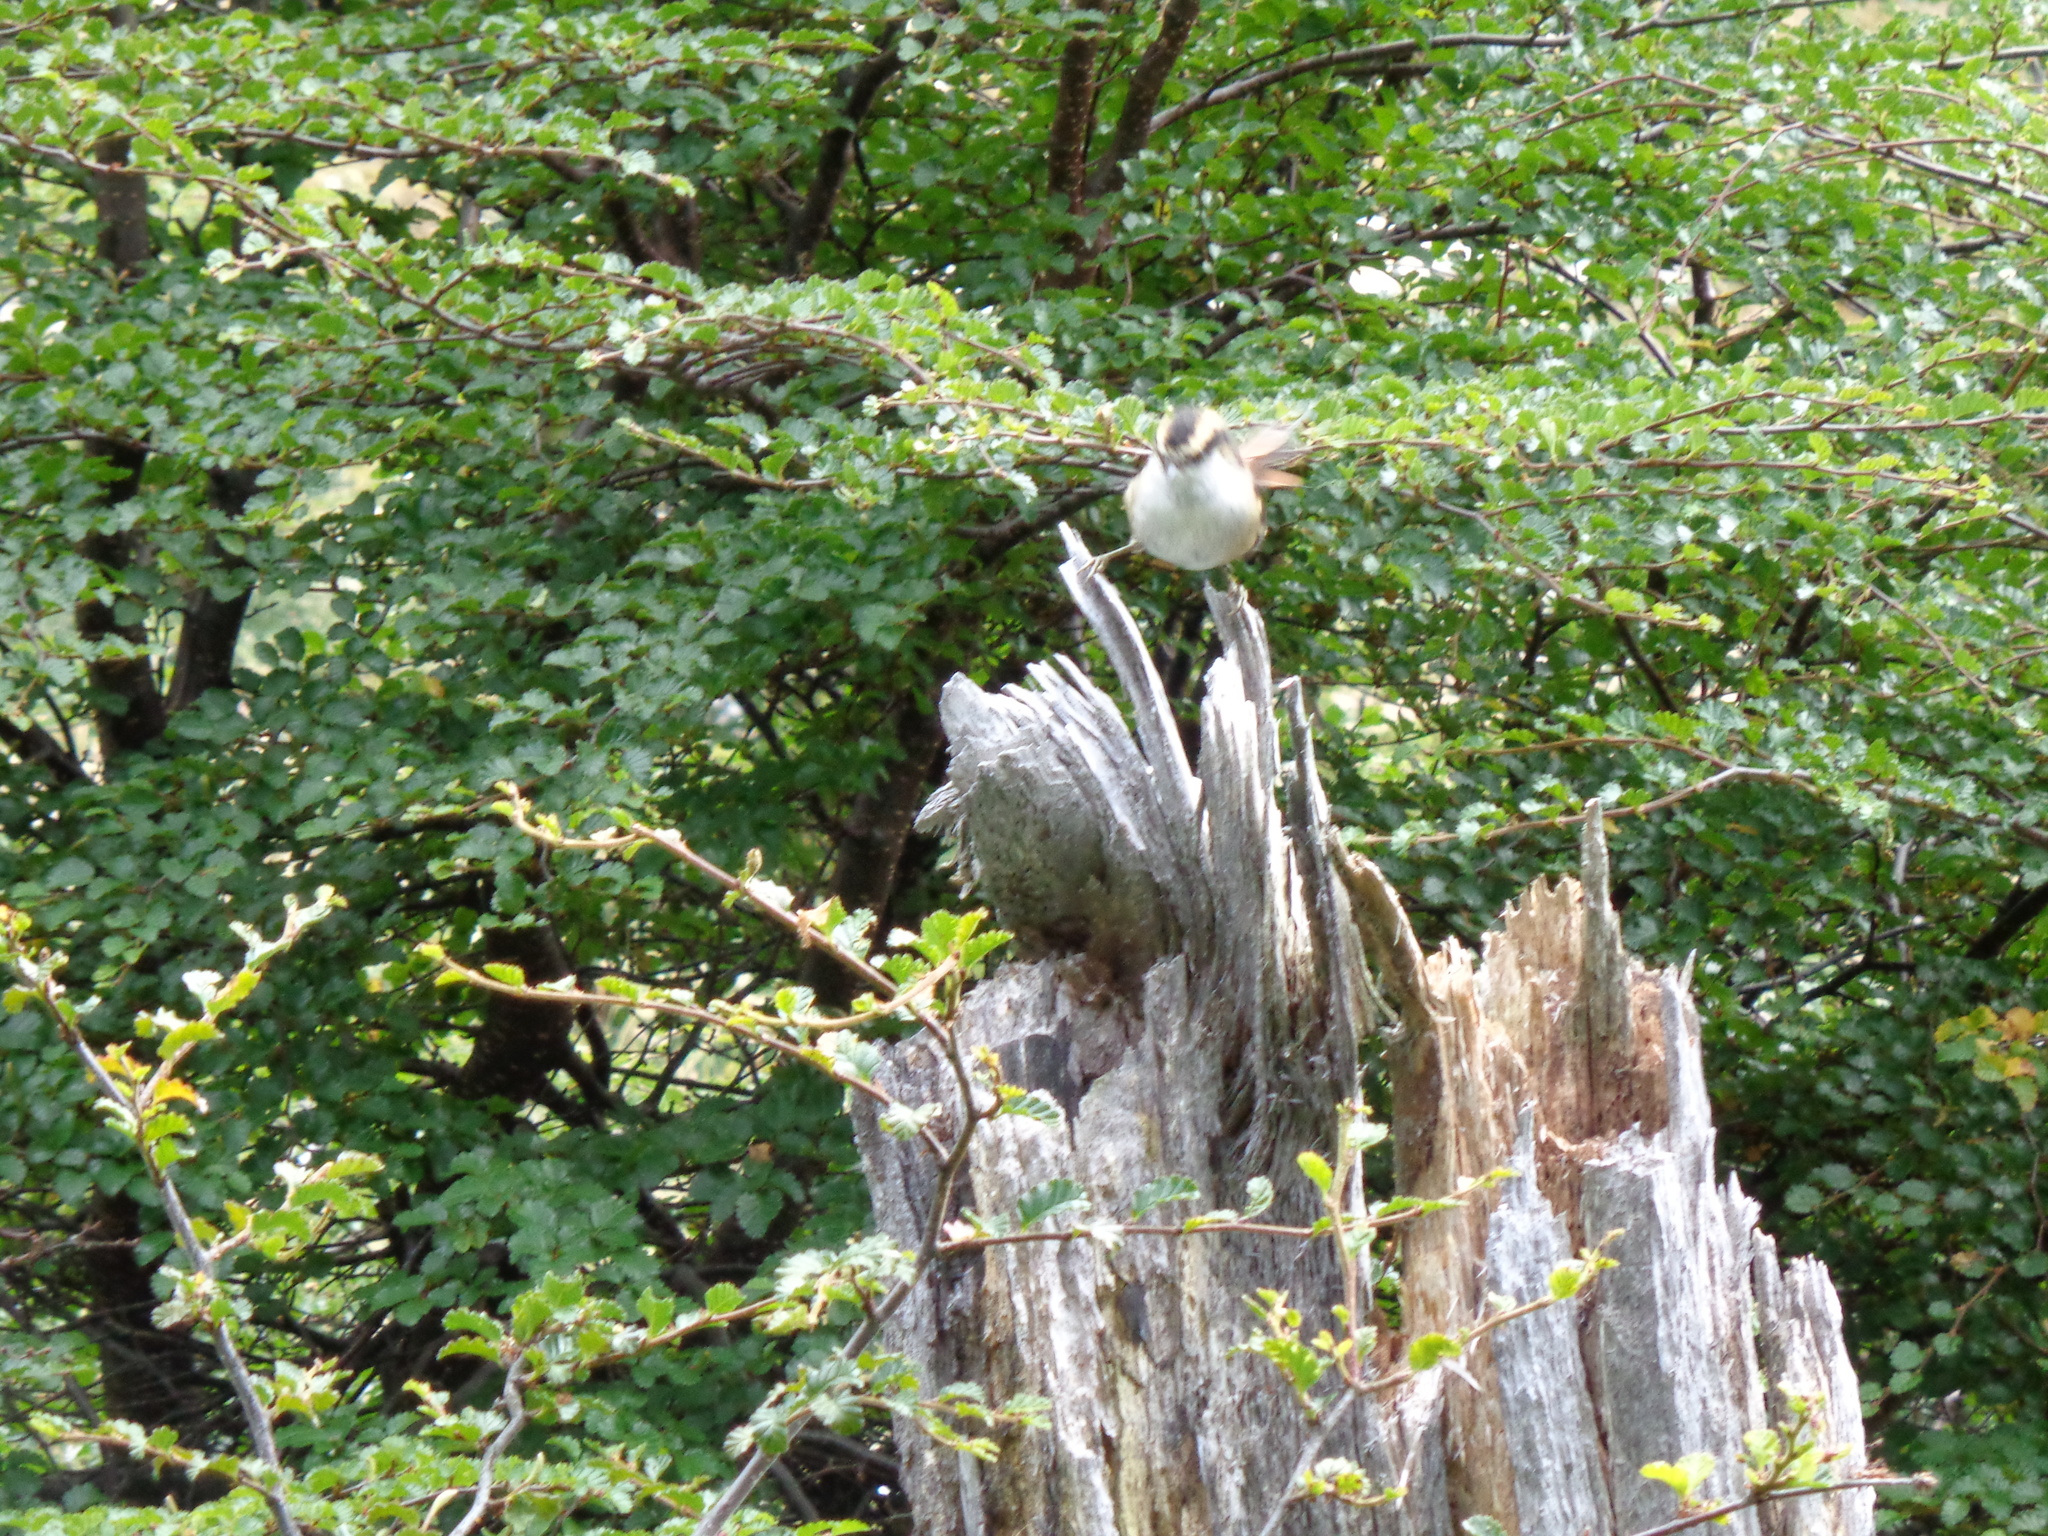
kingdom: Animalia
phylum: Chordata
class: Aves
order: Passeriformes
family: Furnariidae
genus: Aphrastura
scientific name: Aphrastura spinicauda
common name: Thorn-tailed rayadito
